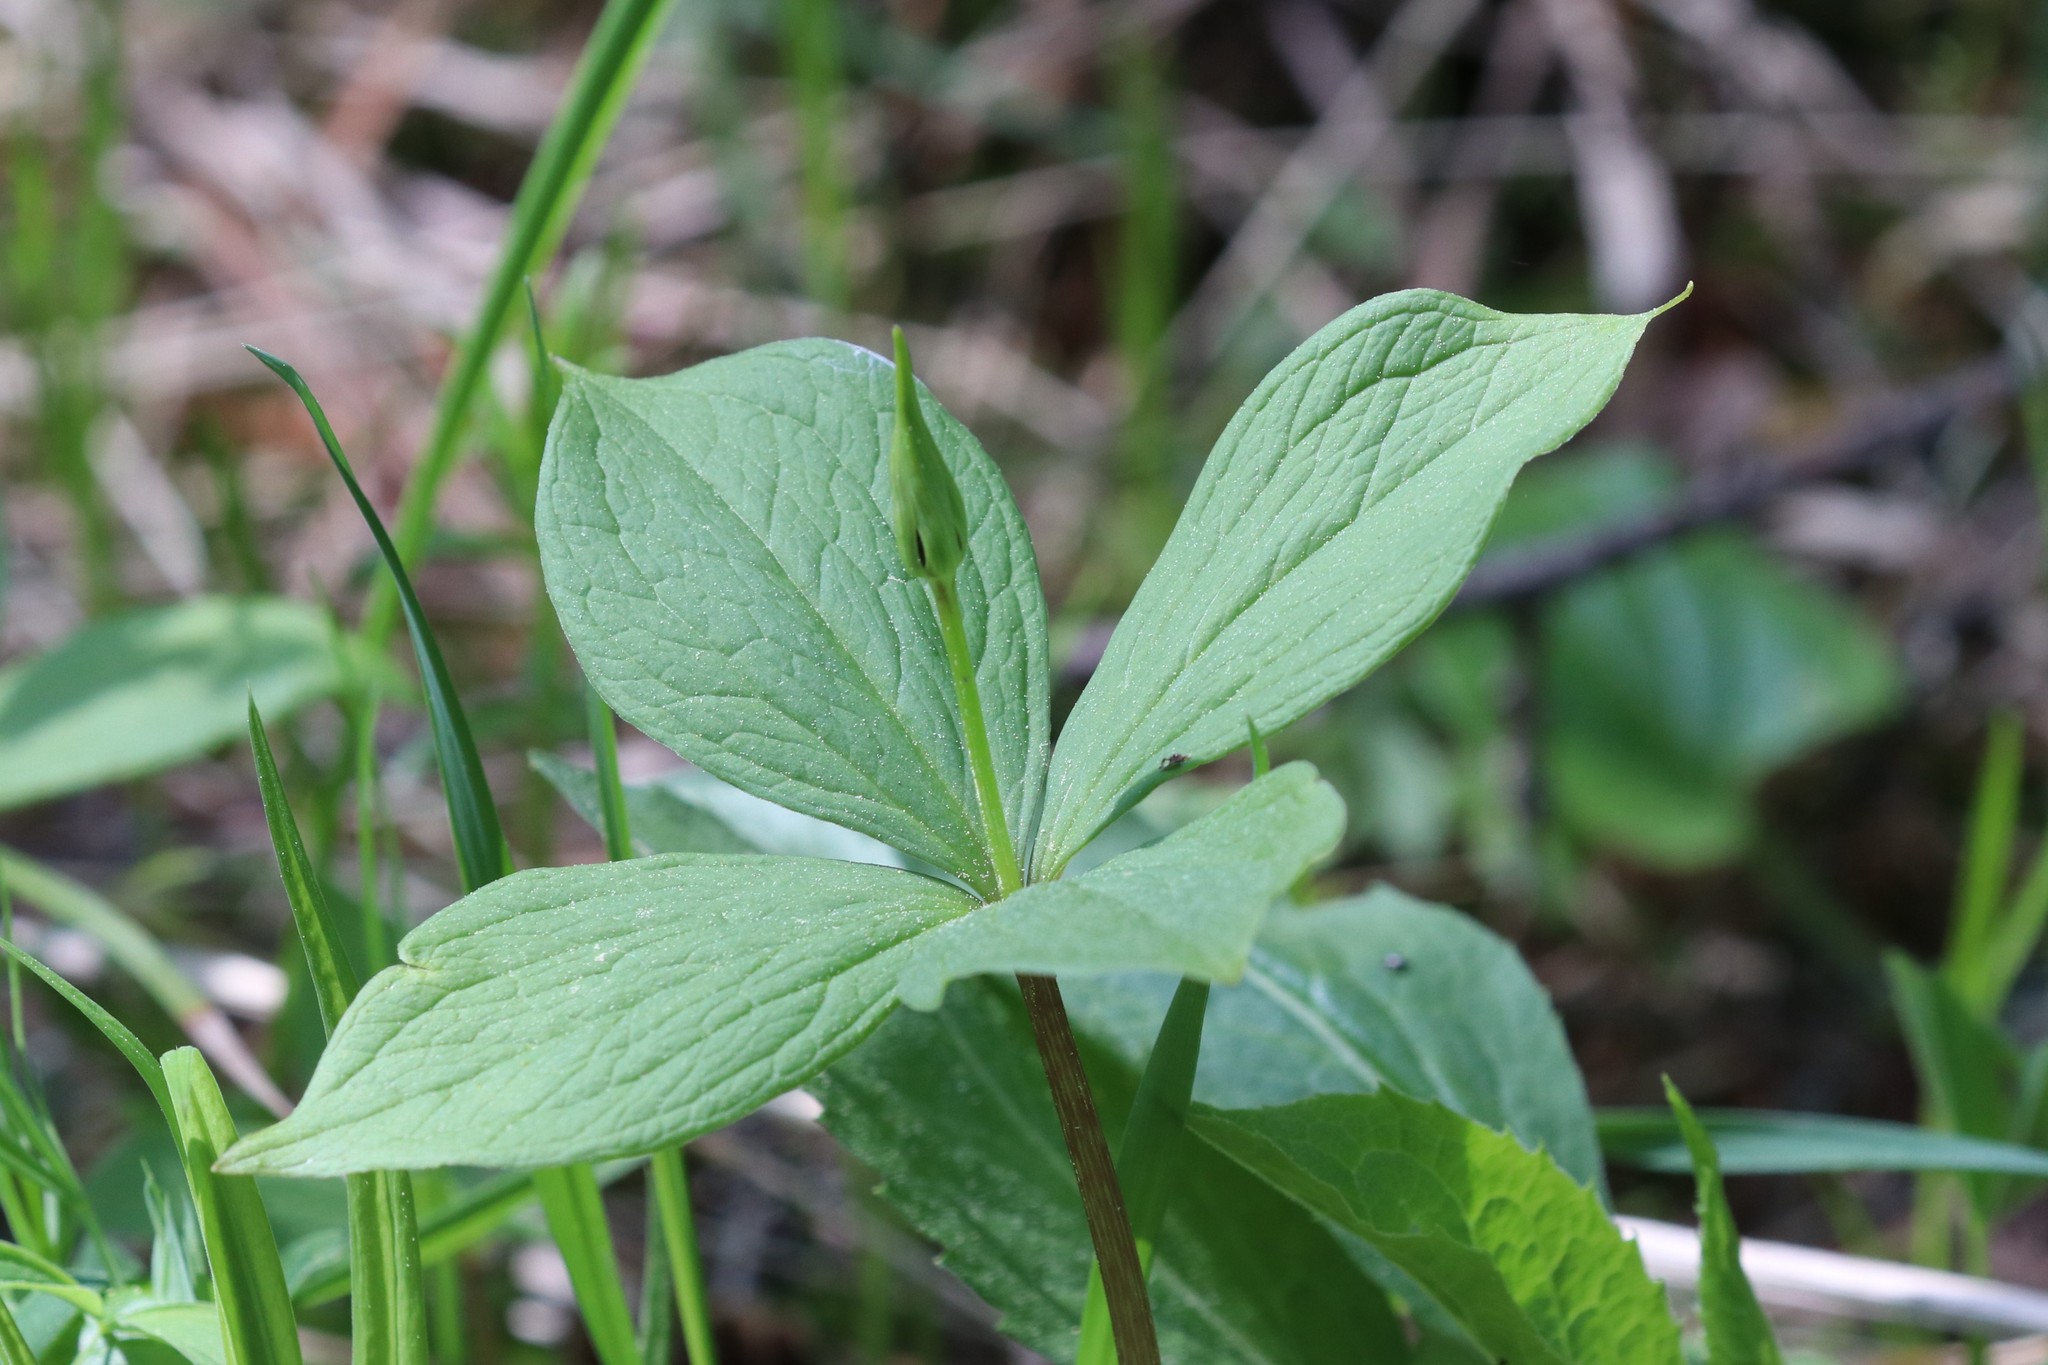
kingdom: Plantae
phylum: Tracheophyta
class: Liliopsida
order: Liliales
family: Melanthiaceae
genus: Paris
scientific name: Paris quadrifolia
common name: Herb-paris
